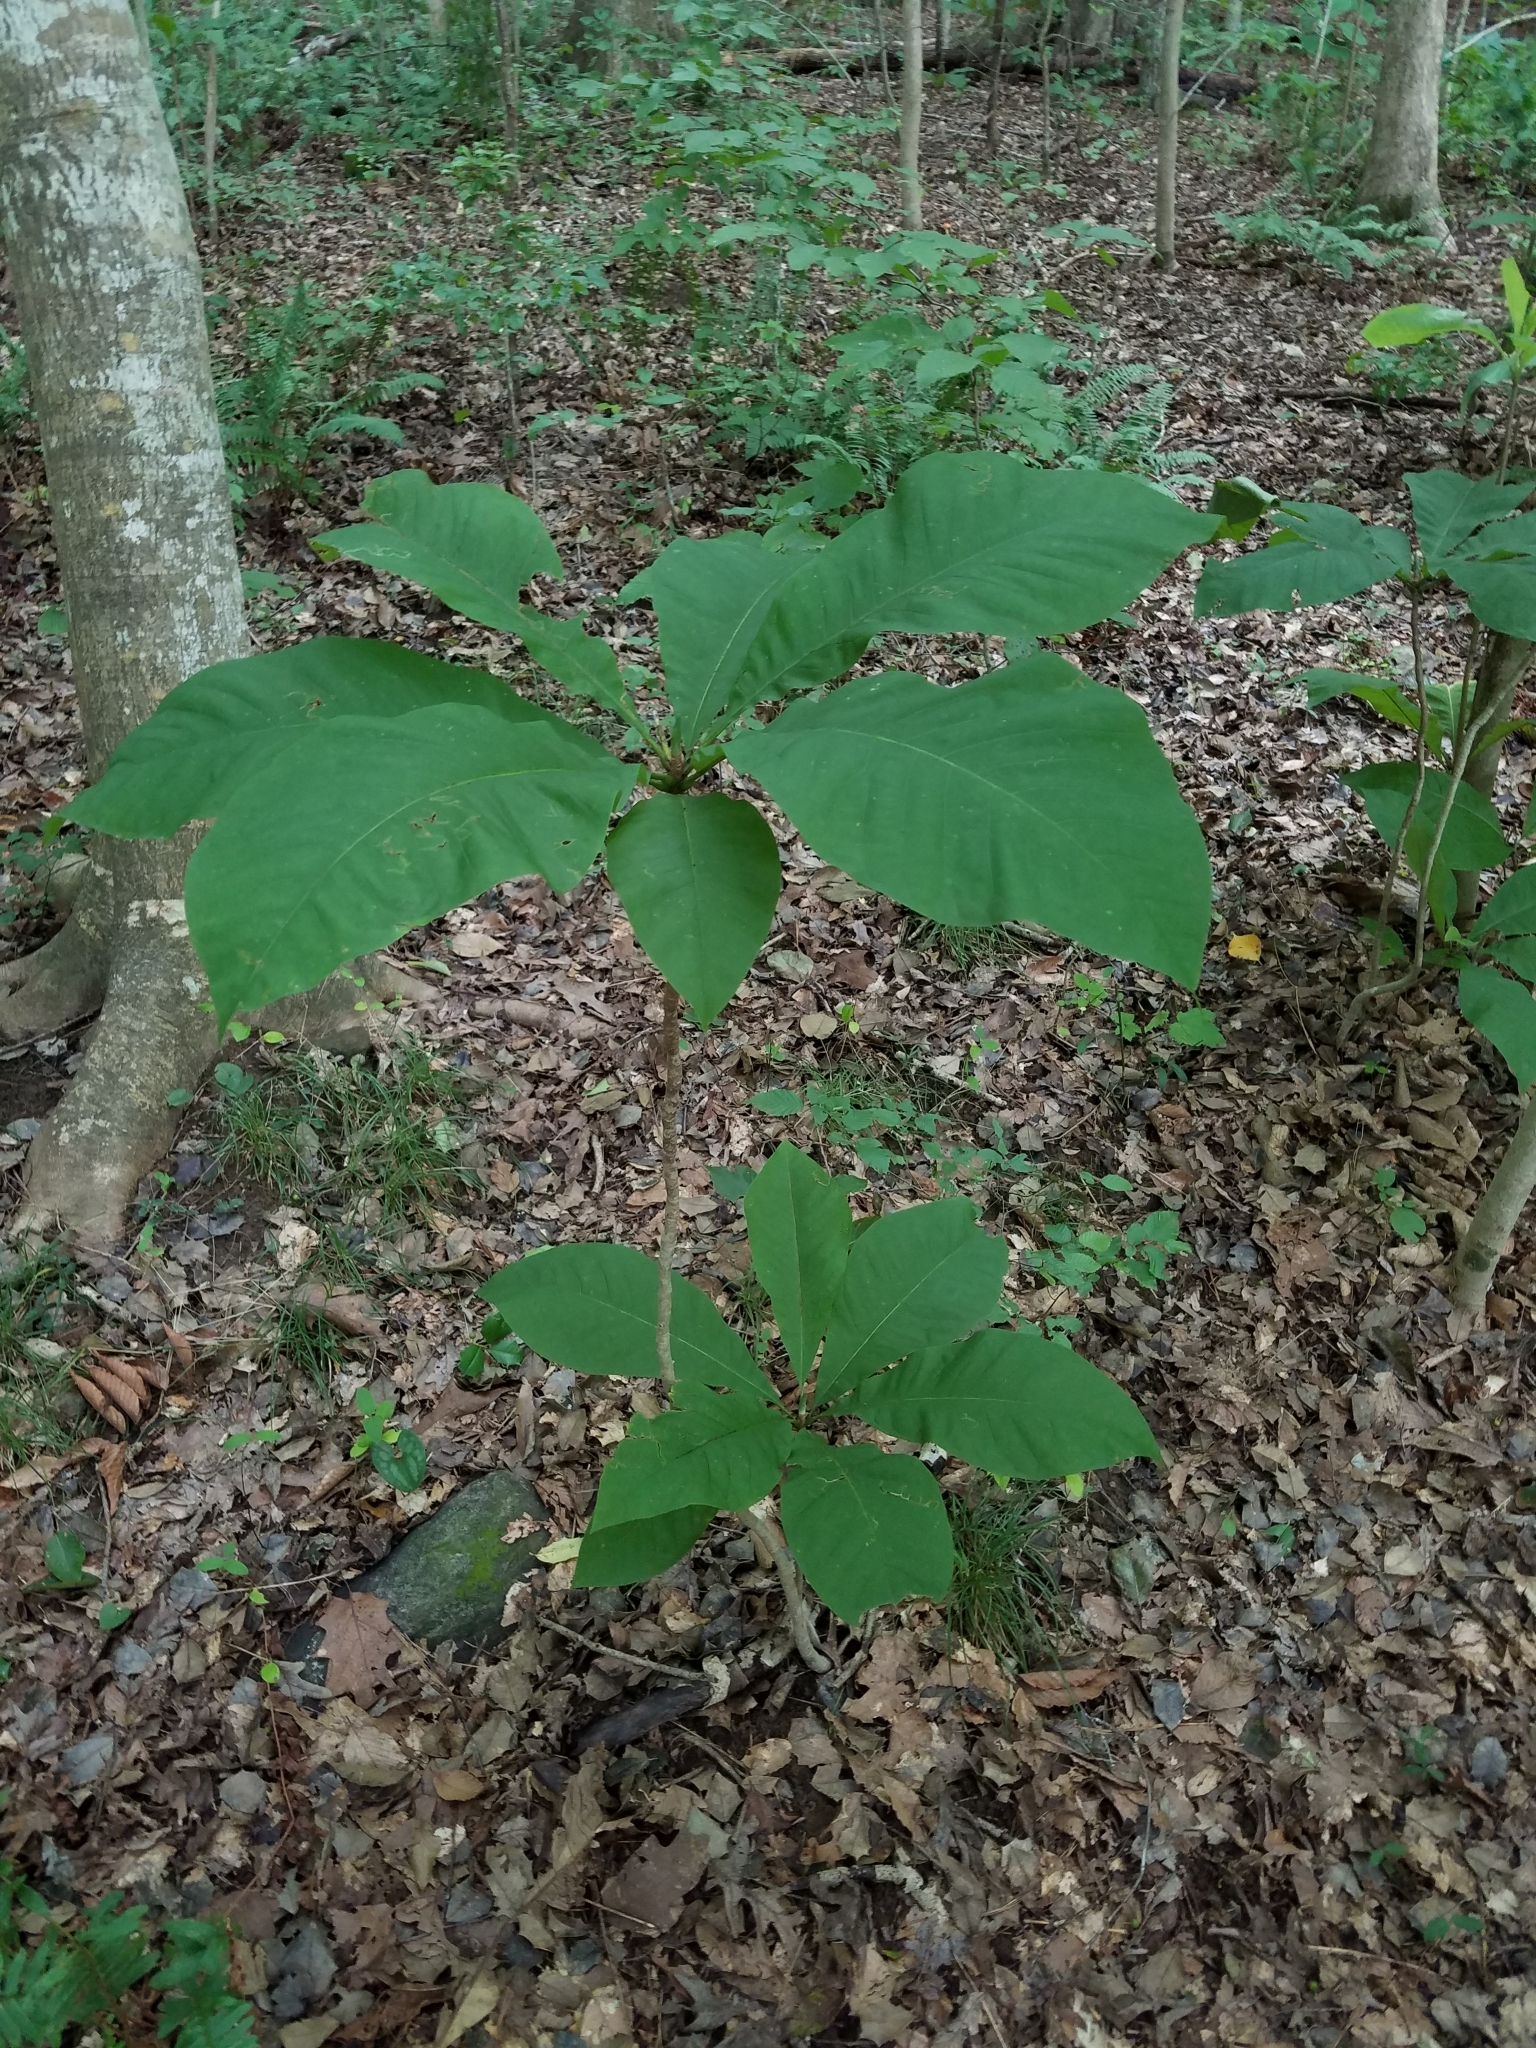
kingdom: Plantae
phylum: Tracheophyta
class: Magnoliopsida
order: Magnoliales
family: Magnoliaceae
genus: Magnolia
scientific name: Magnolia tripetala
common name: Umbrella magnolia
